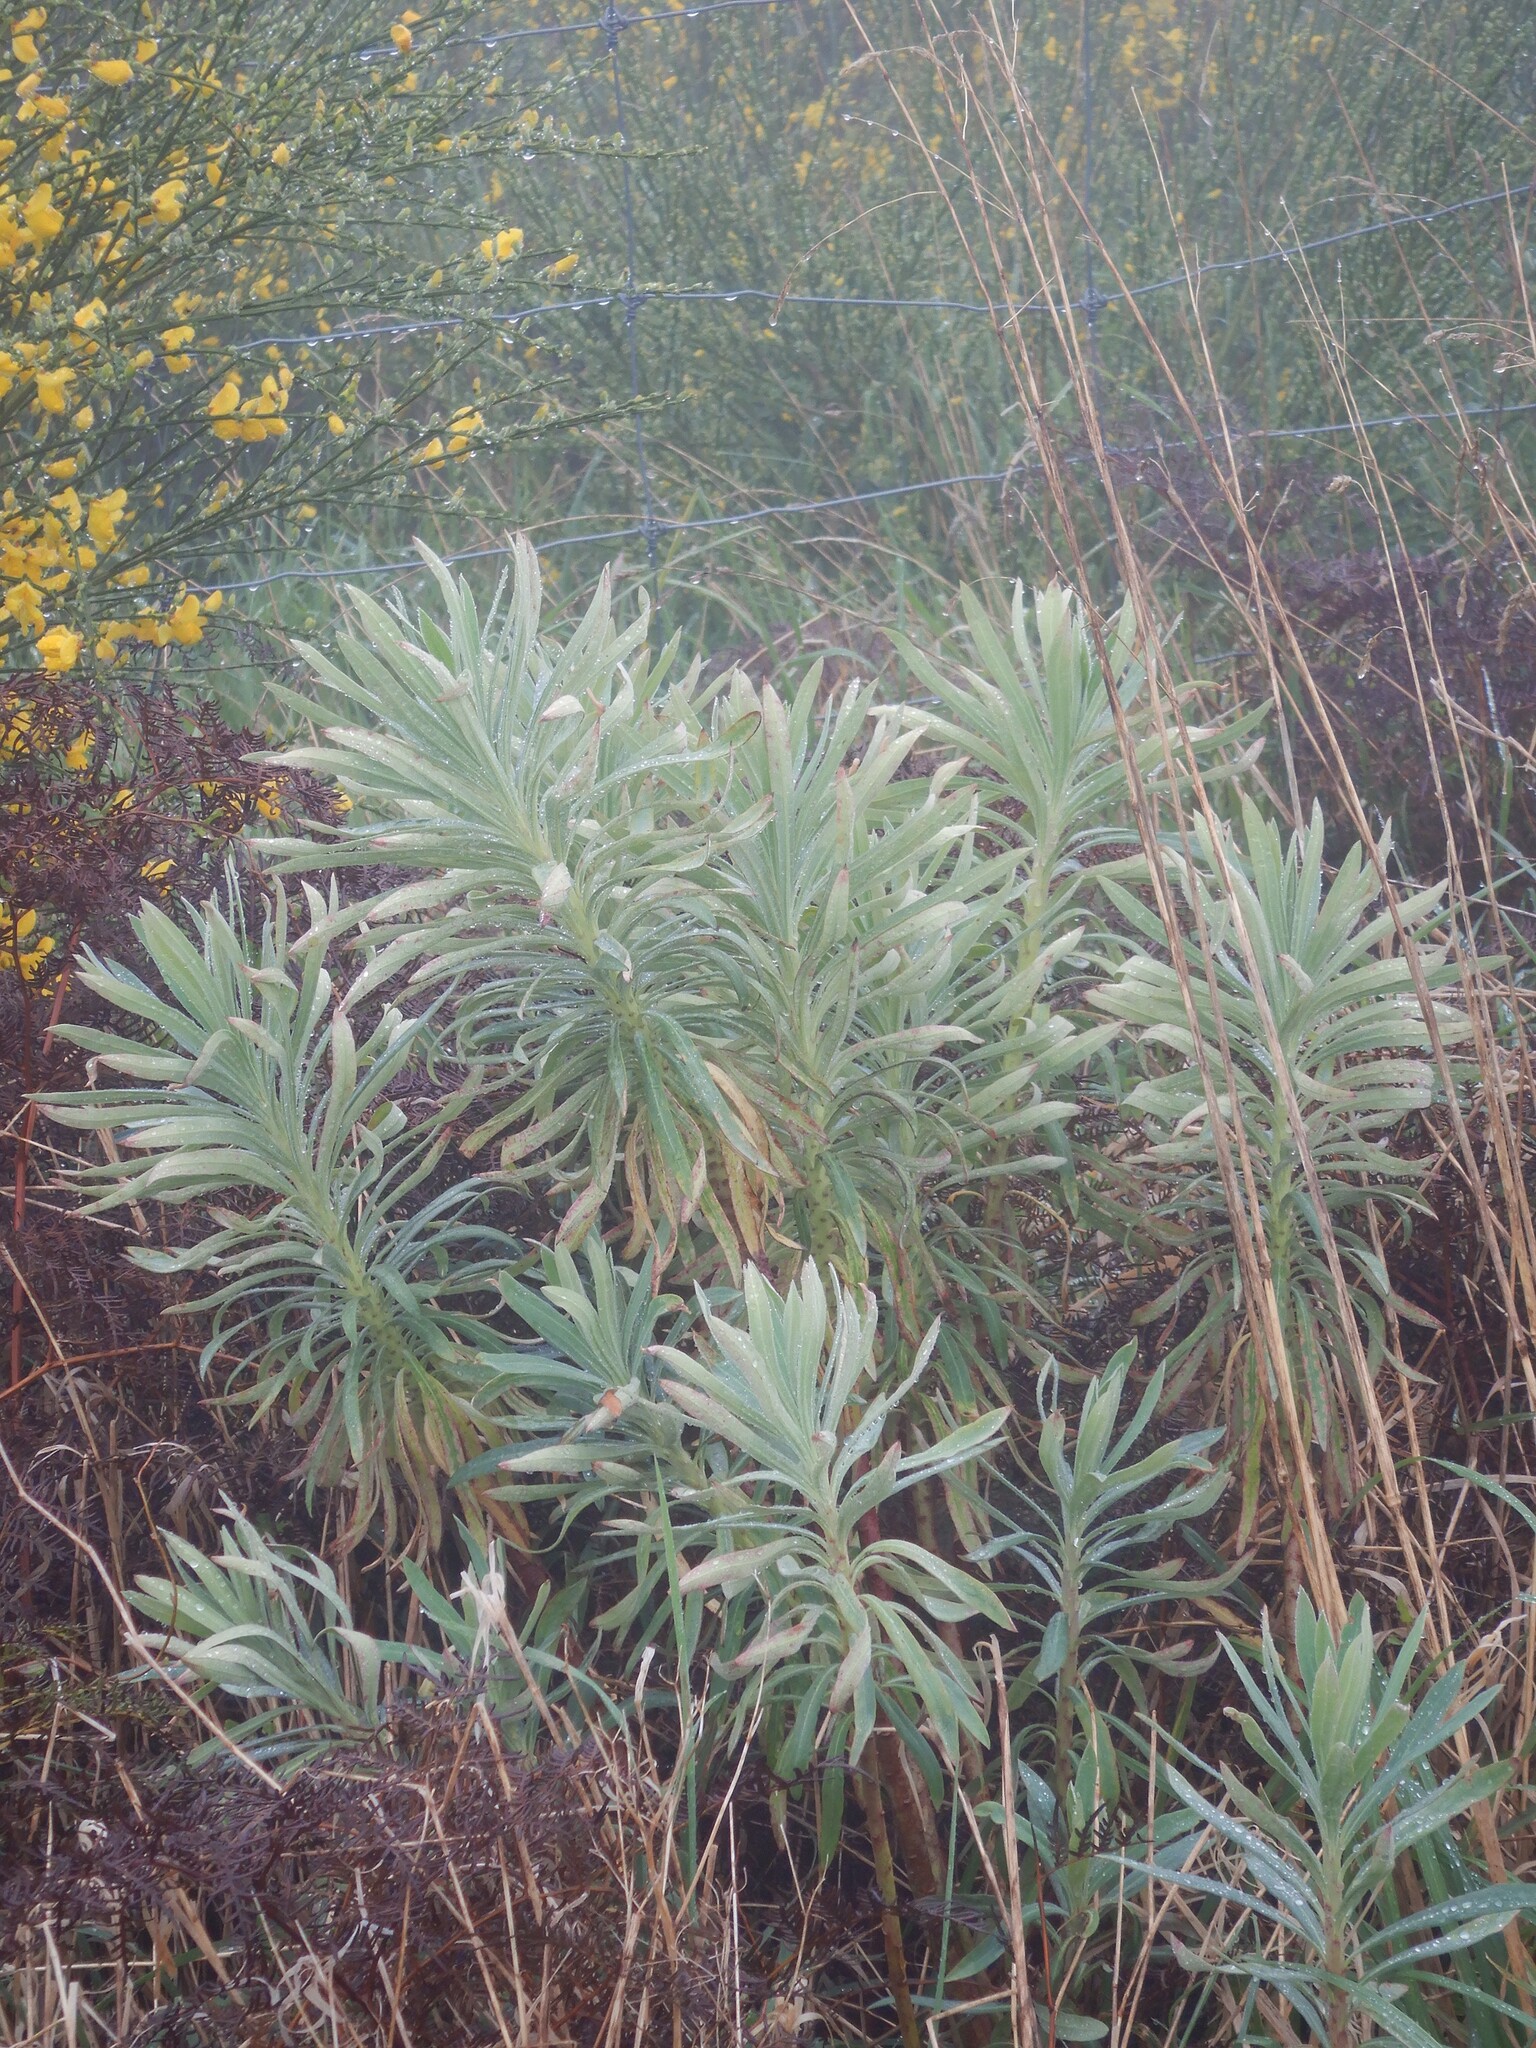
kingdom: Plantae
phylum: Tracheophyta
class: Magnoliopsida
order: Malpighiales
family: Euphorbiaceae
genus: Euphorbia
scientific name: Euphorbia characias
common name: Mediterranean spurge
